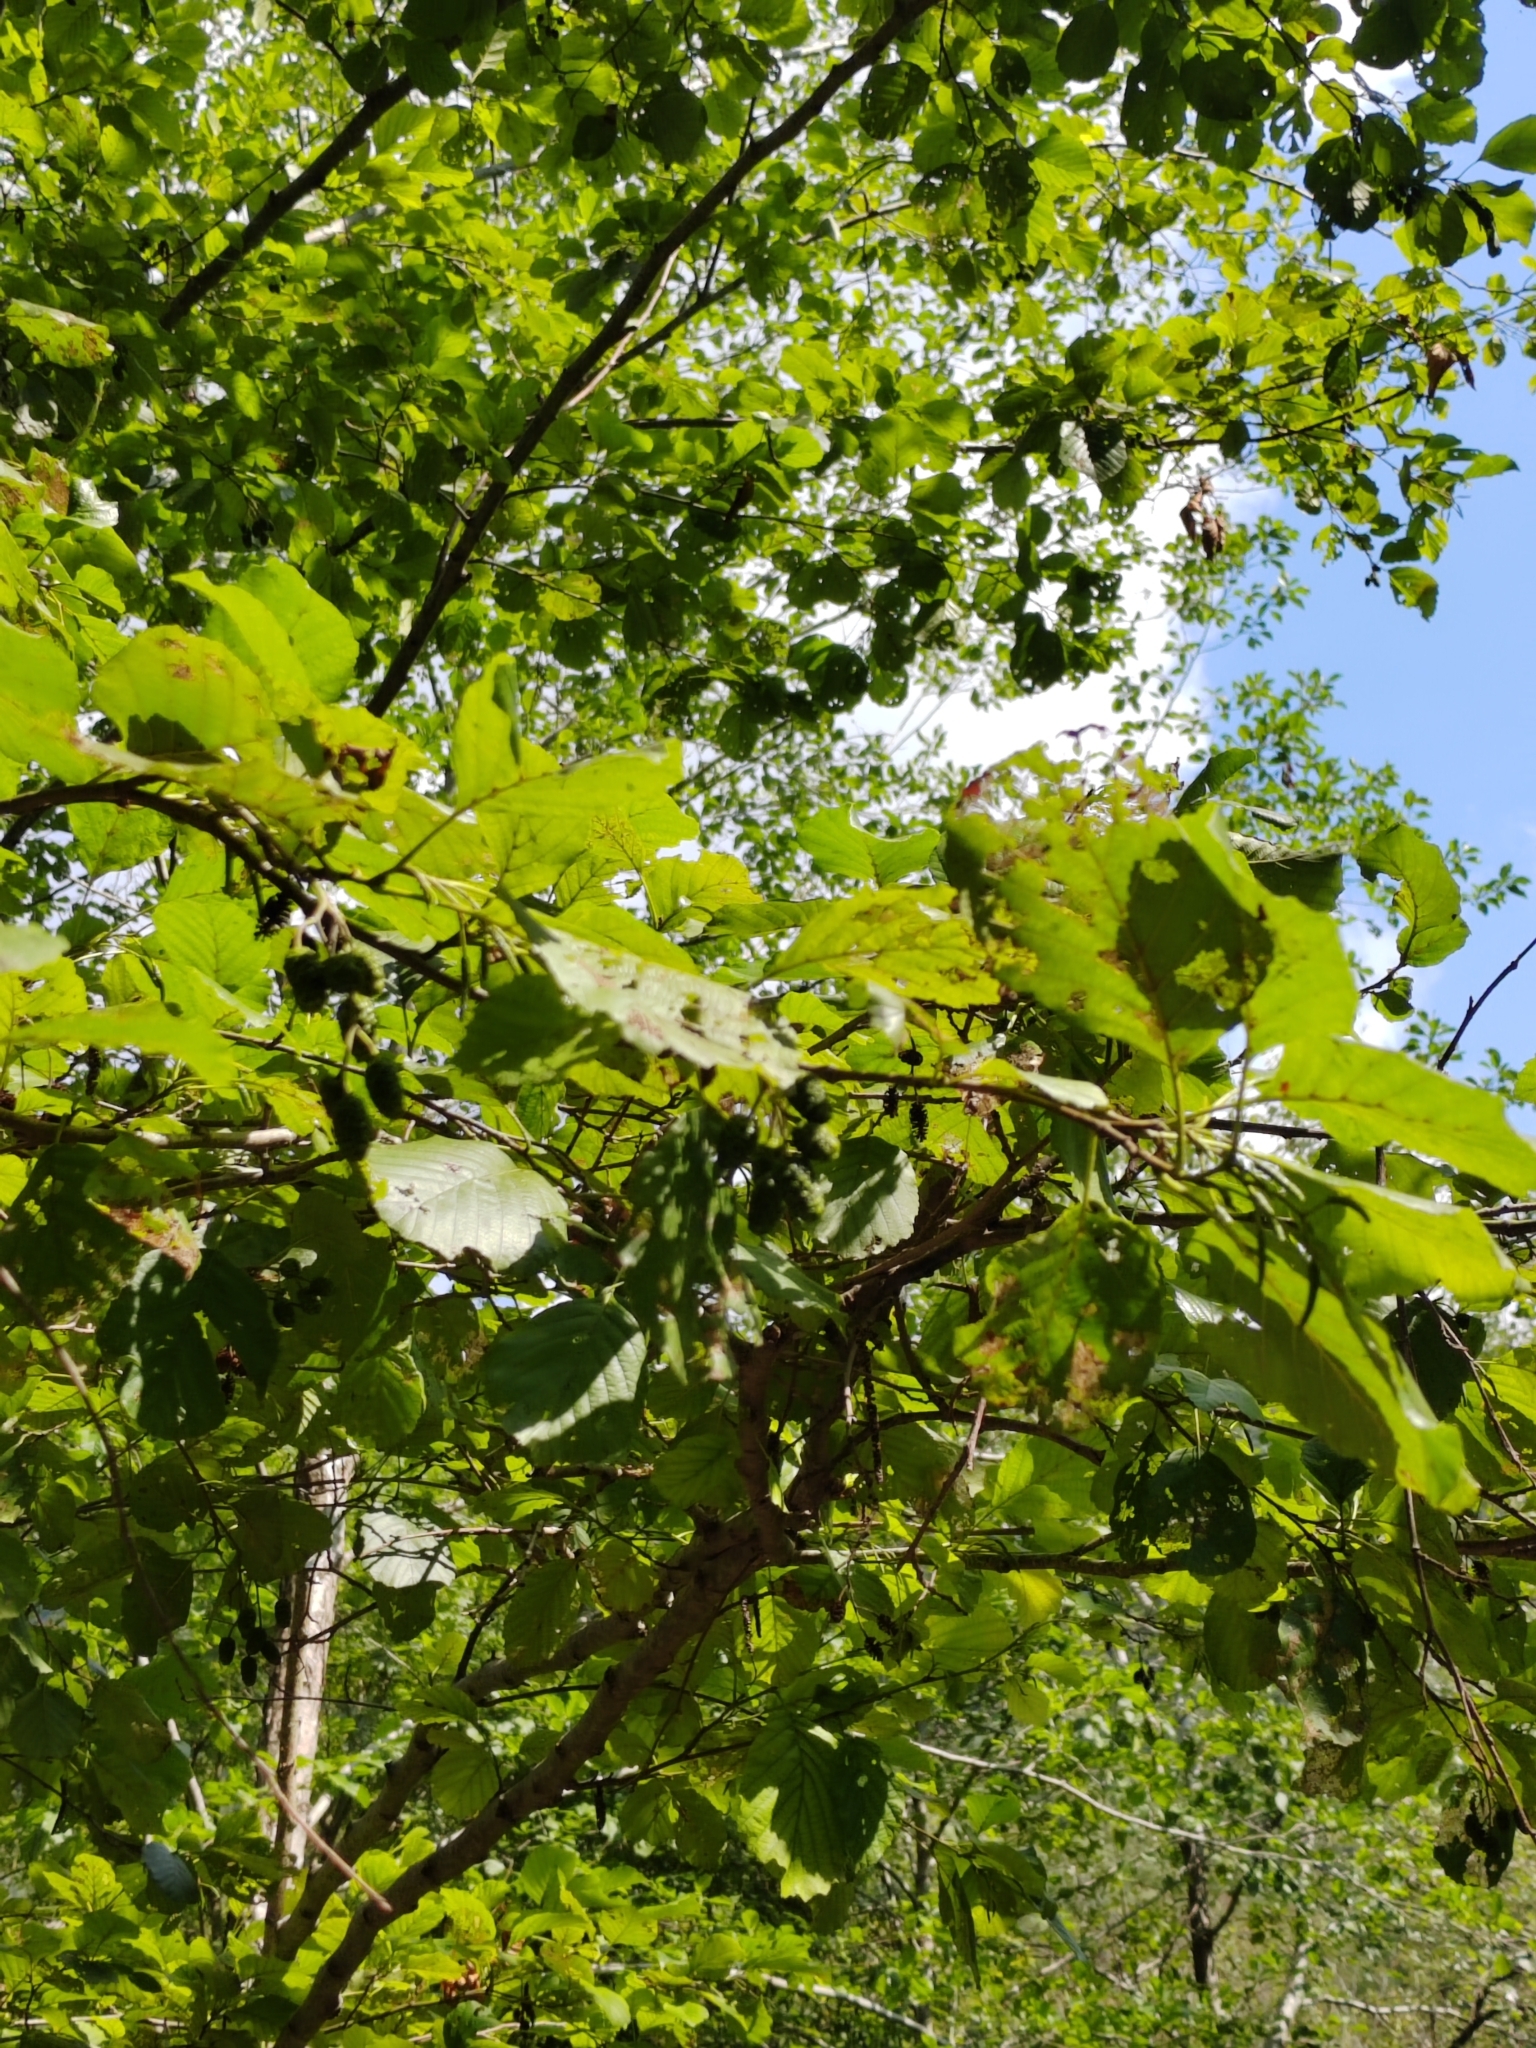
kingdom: Plantae
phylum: Tracheophyta
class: Magnoliopsida
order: Fagales
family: Betulaceae
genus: Alnus
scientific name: Alnus glutinosa
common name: Black alder
